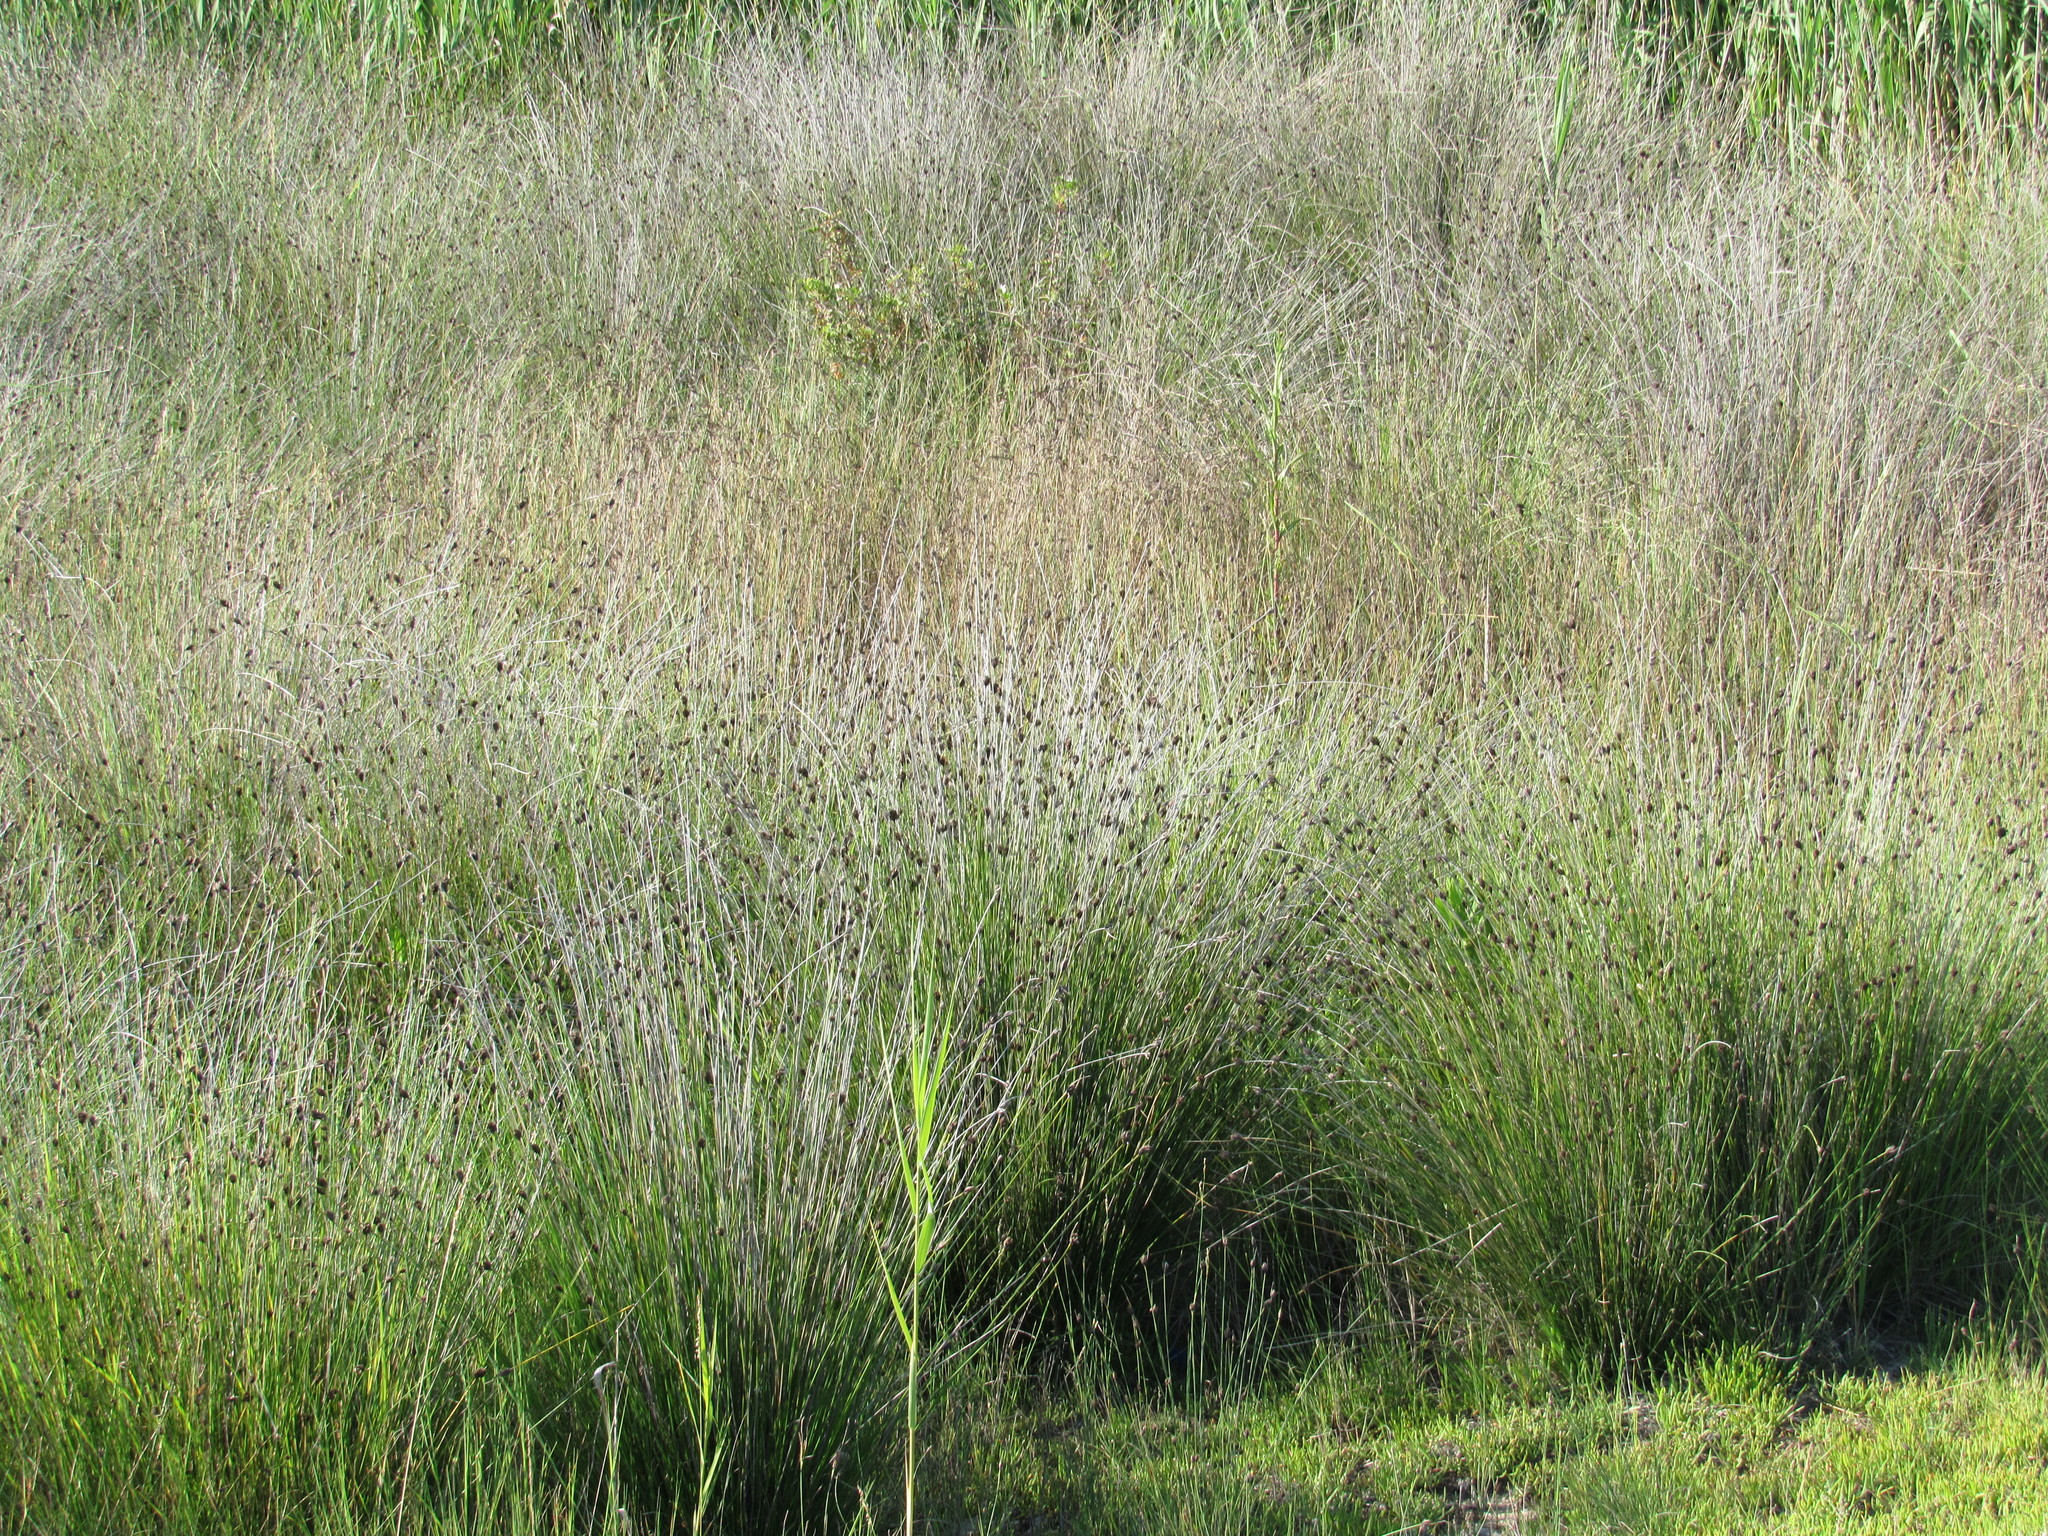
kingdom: Plantae
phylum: Tracheophyta
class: Liliopsida
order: Poales
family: Cyperaceae
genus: Schoenus
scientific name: Schoenus nigricans
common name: Black bog-rush
